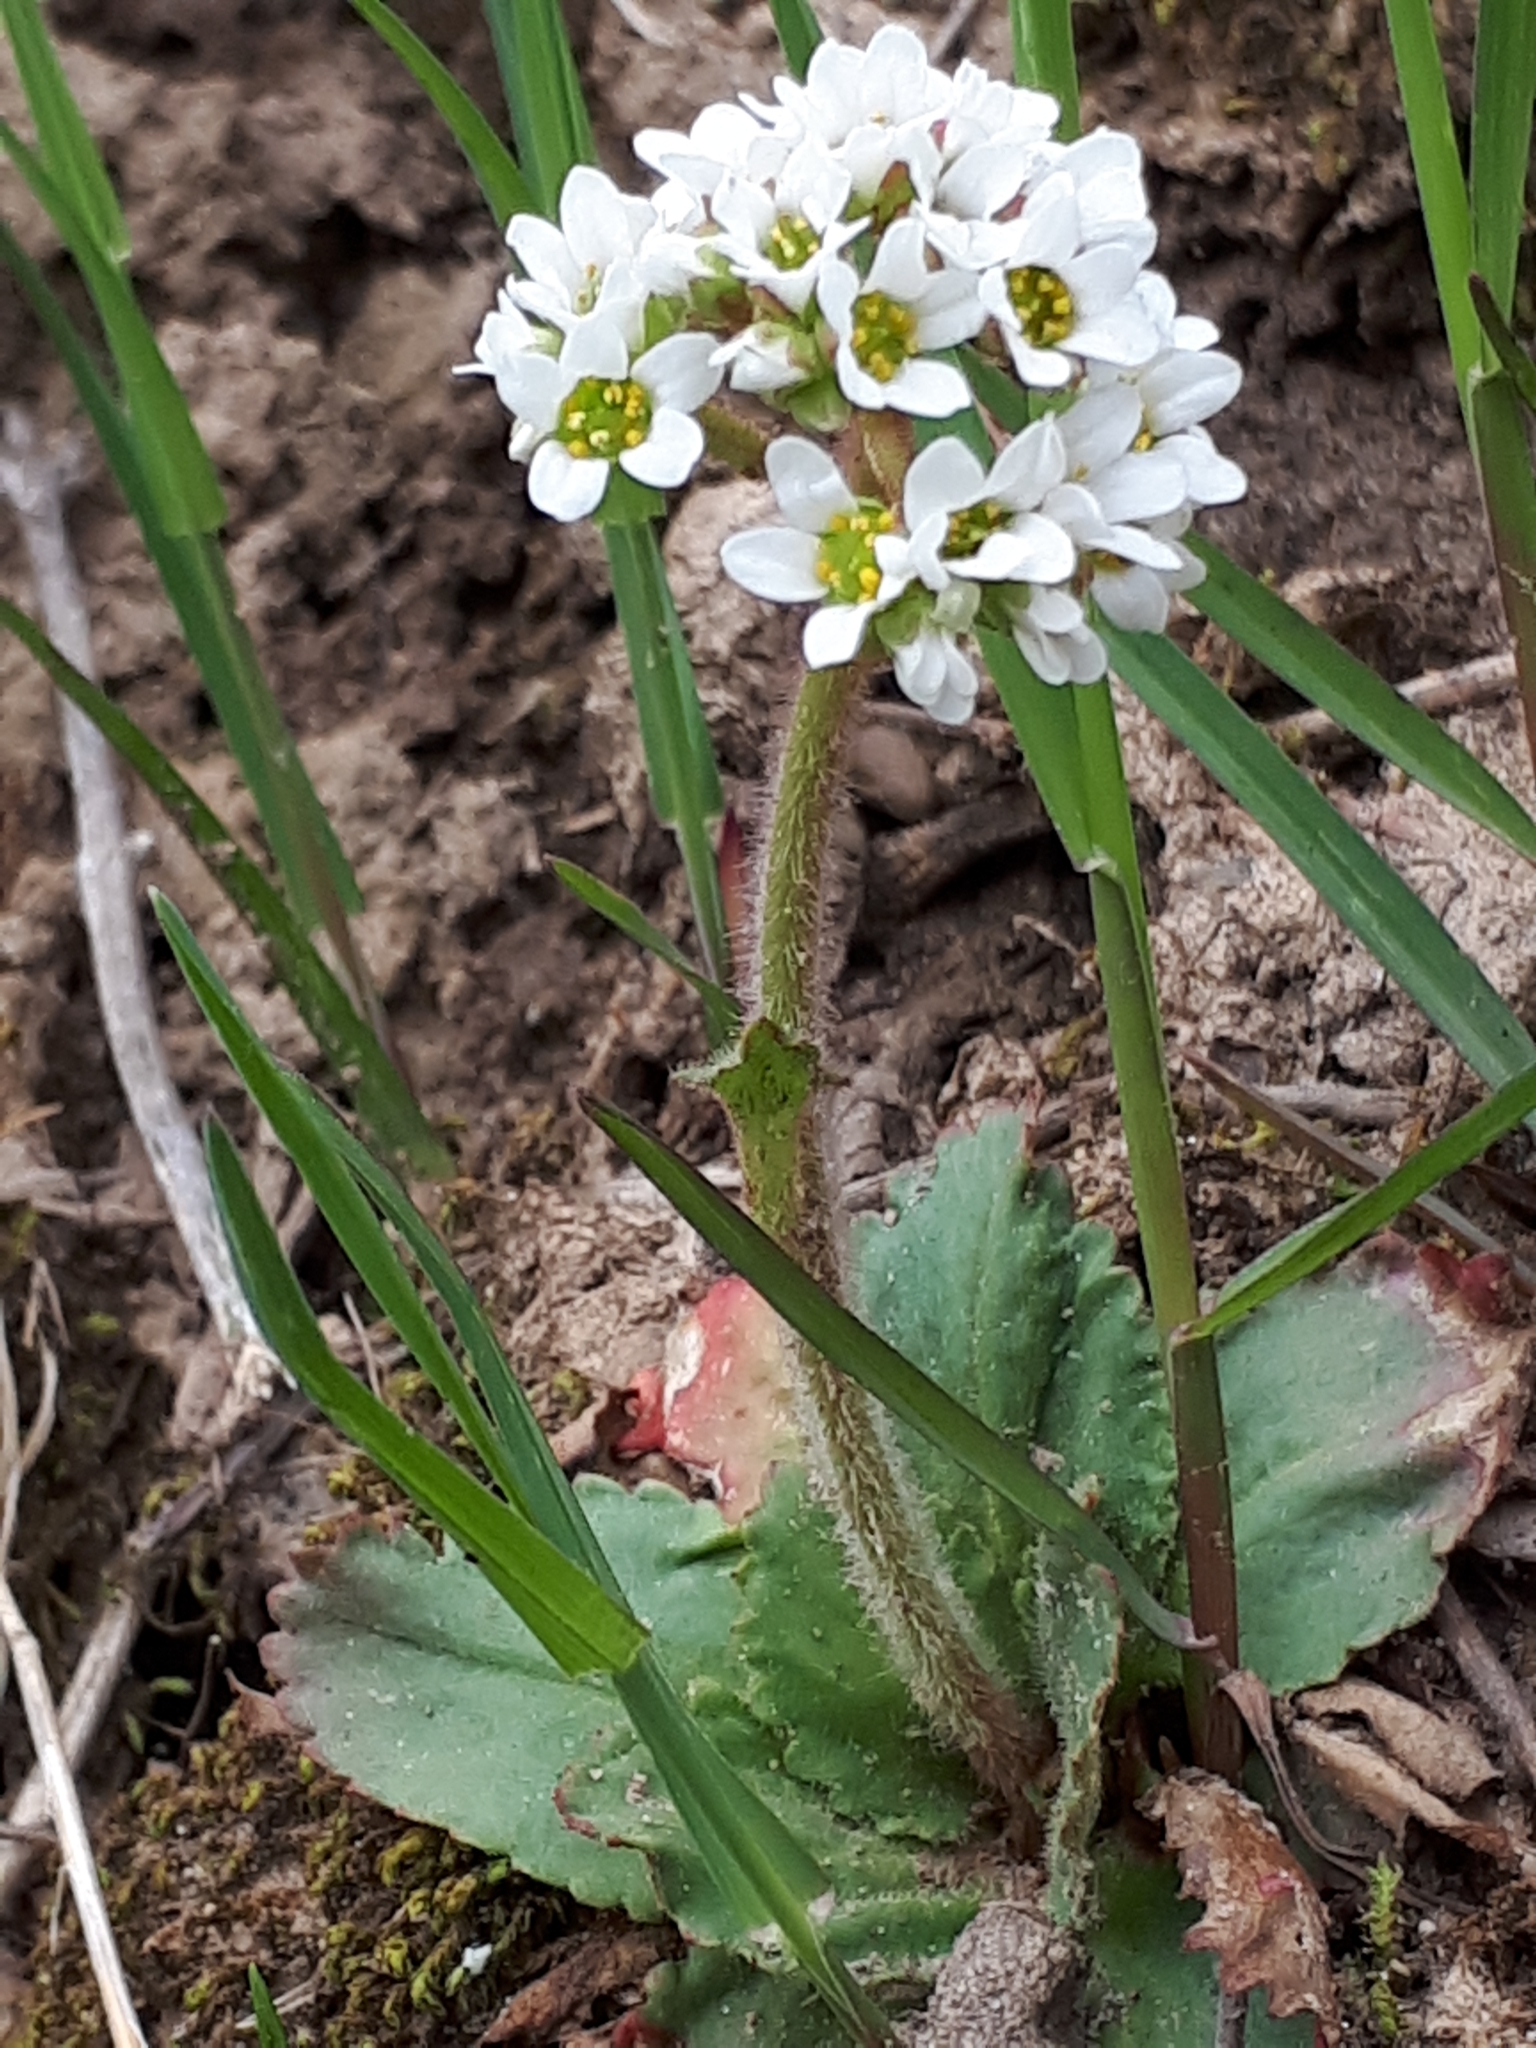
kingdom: Plantae
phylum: Tracheophyta
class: Magnoliopsida
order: Saxifragales
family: Saxifragaceae
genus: Micranthes
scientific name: Micranthes virginiensis
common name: Early saxifrage
